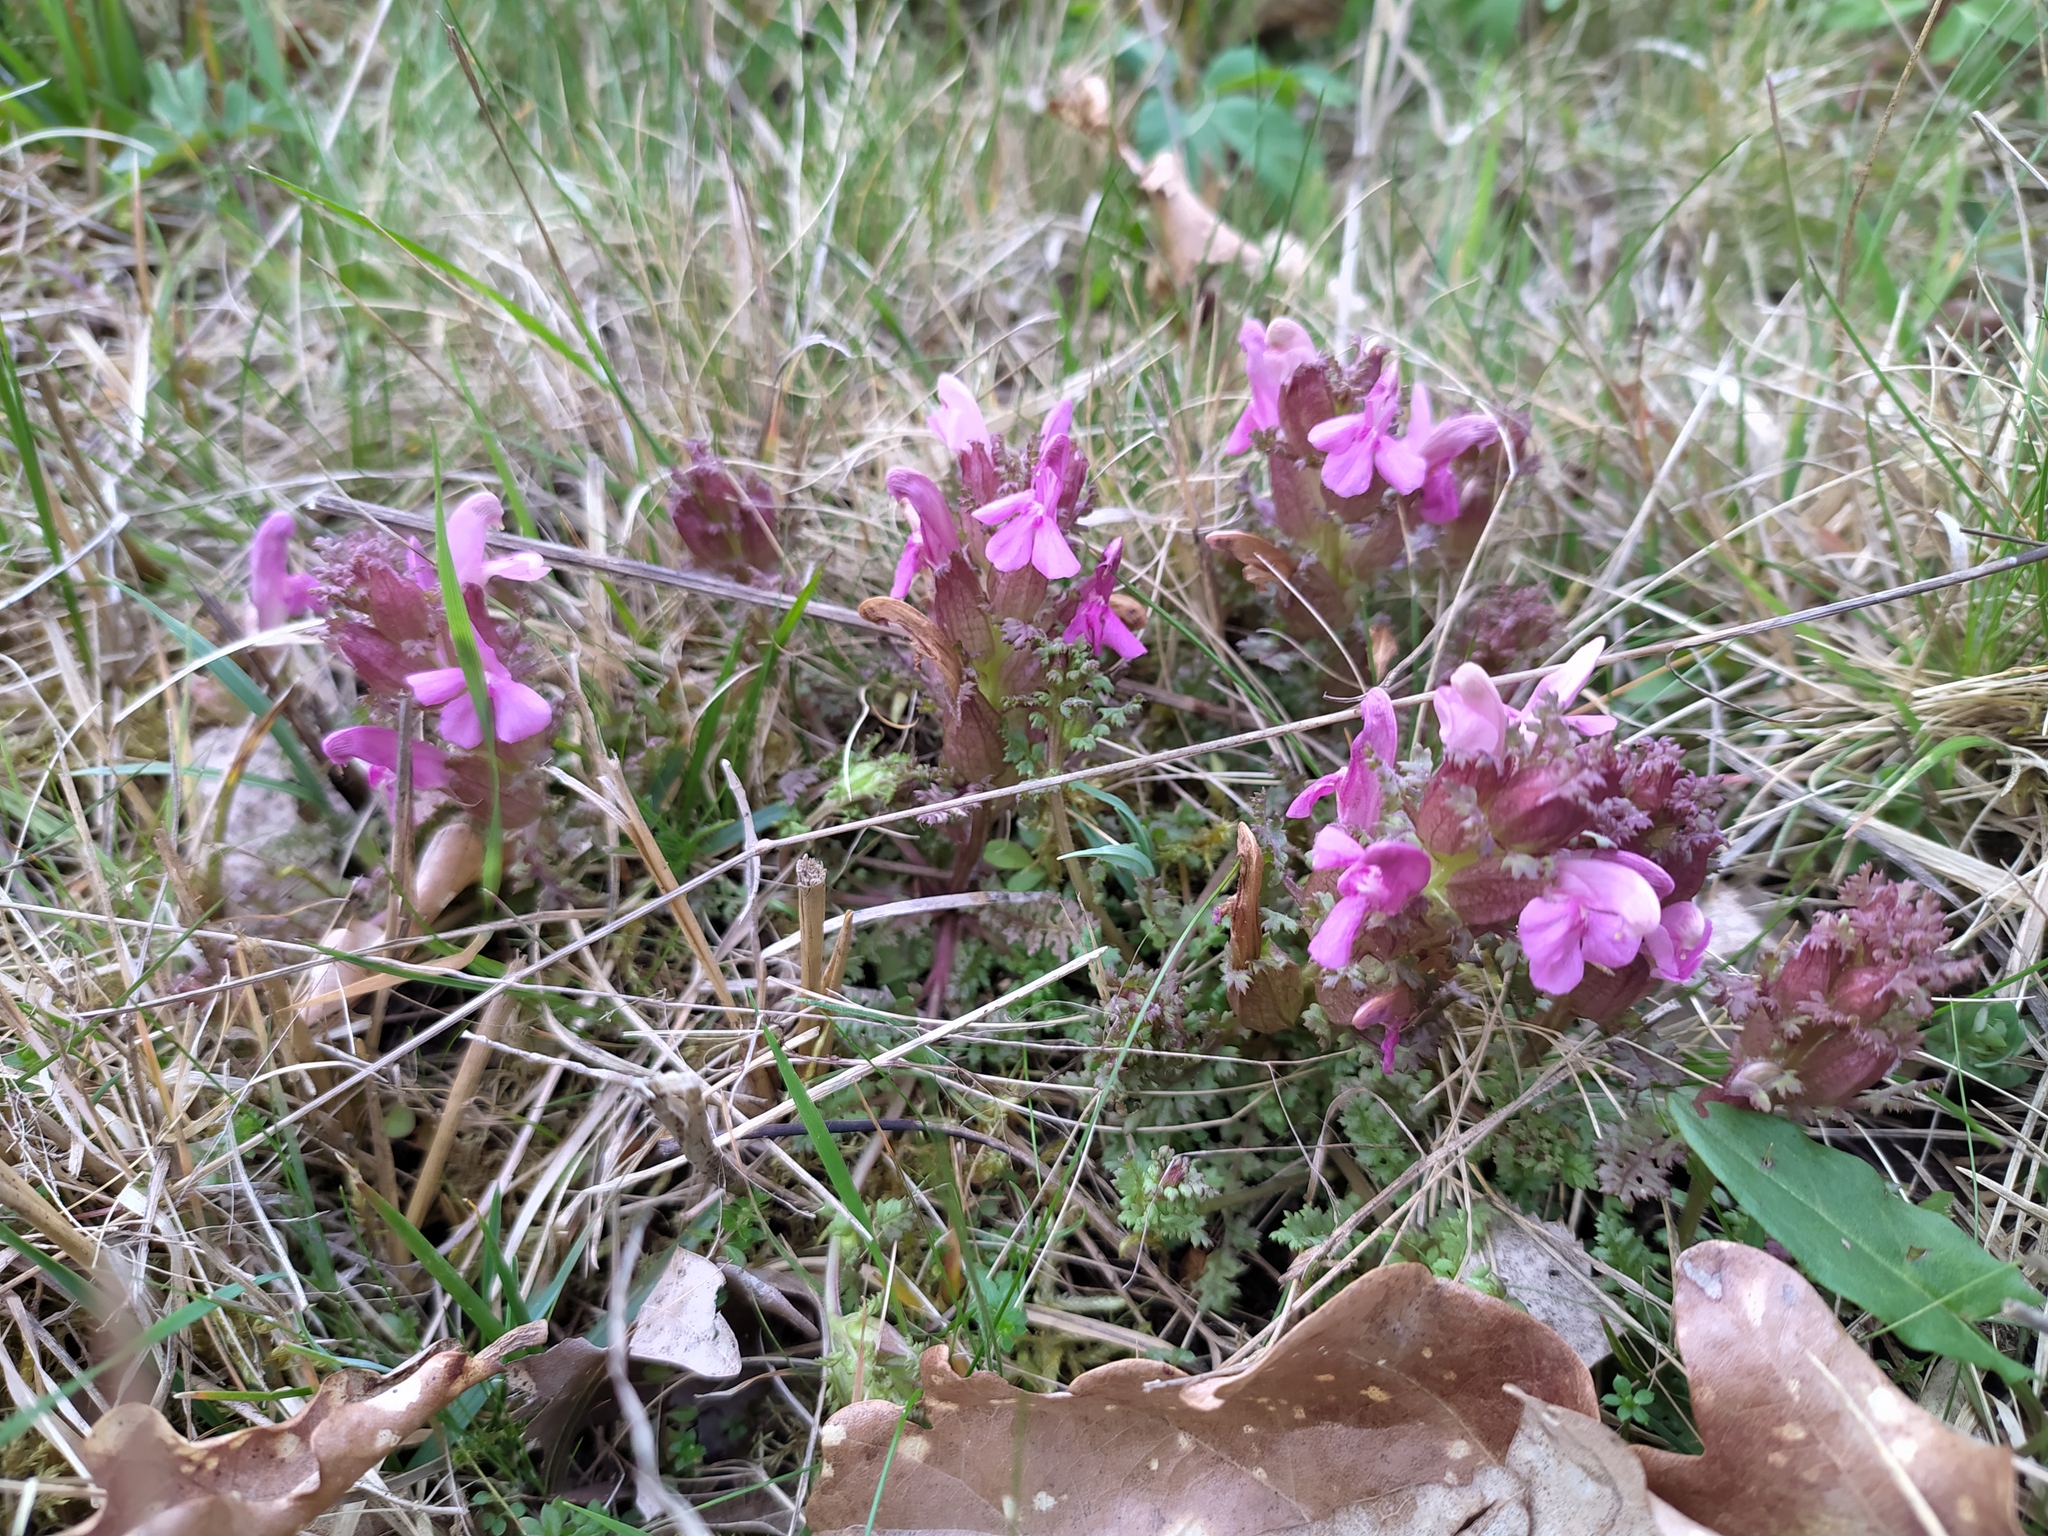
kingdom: Plantae
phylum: Tracheophyta
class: Magnoliopsida
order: Lamiales
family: Orobanchaceae
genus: Pedicularis
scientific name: Pedicularis sylvatica
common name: Lousewort
